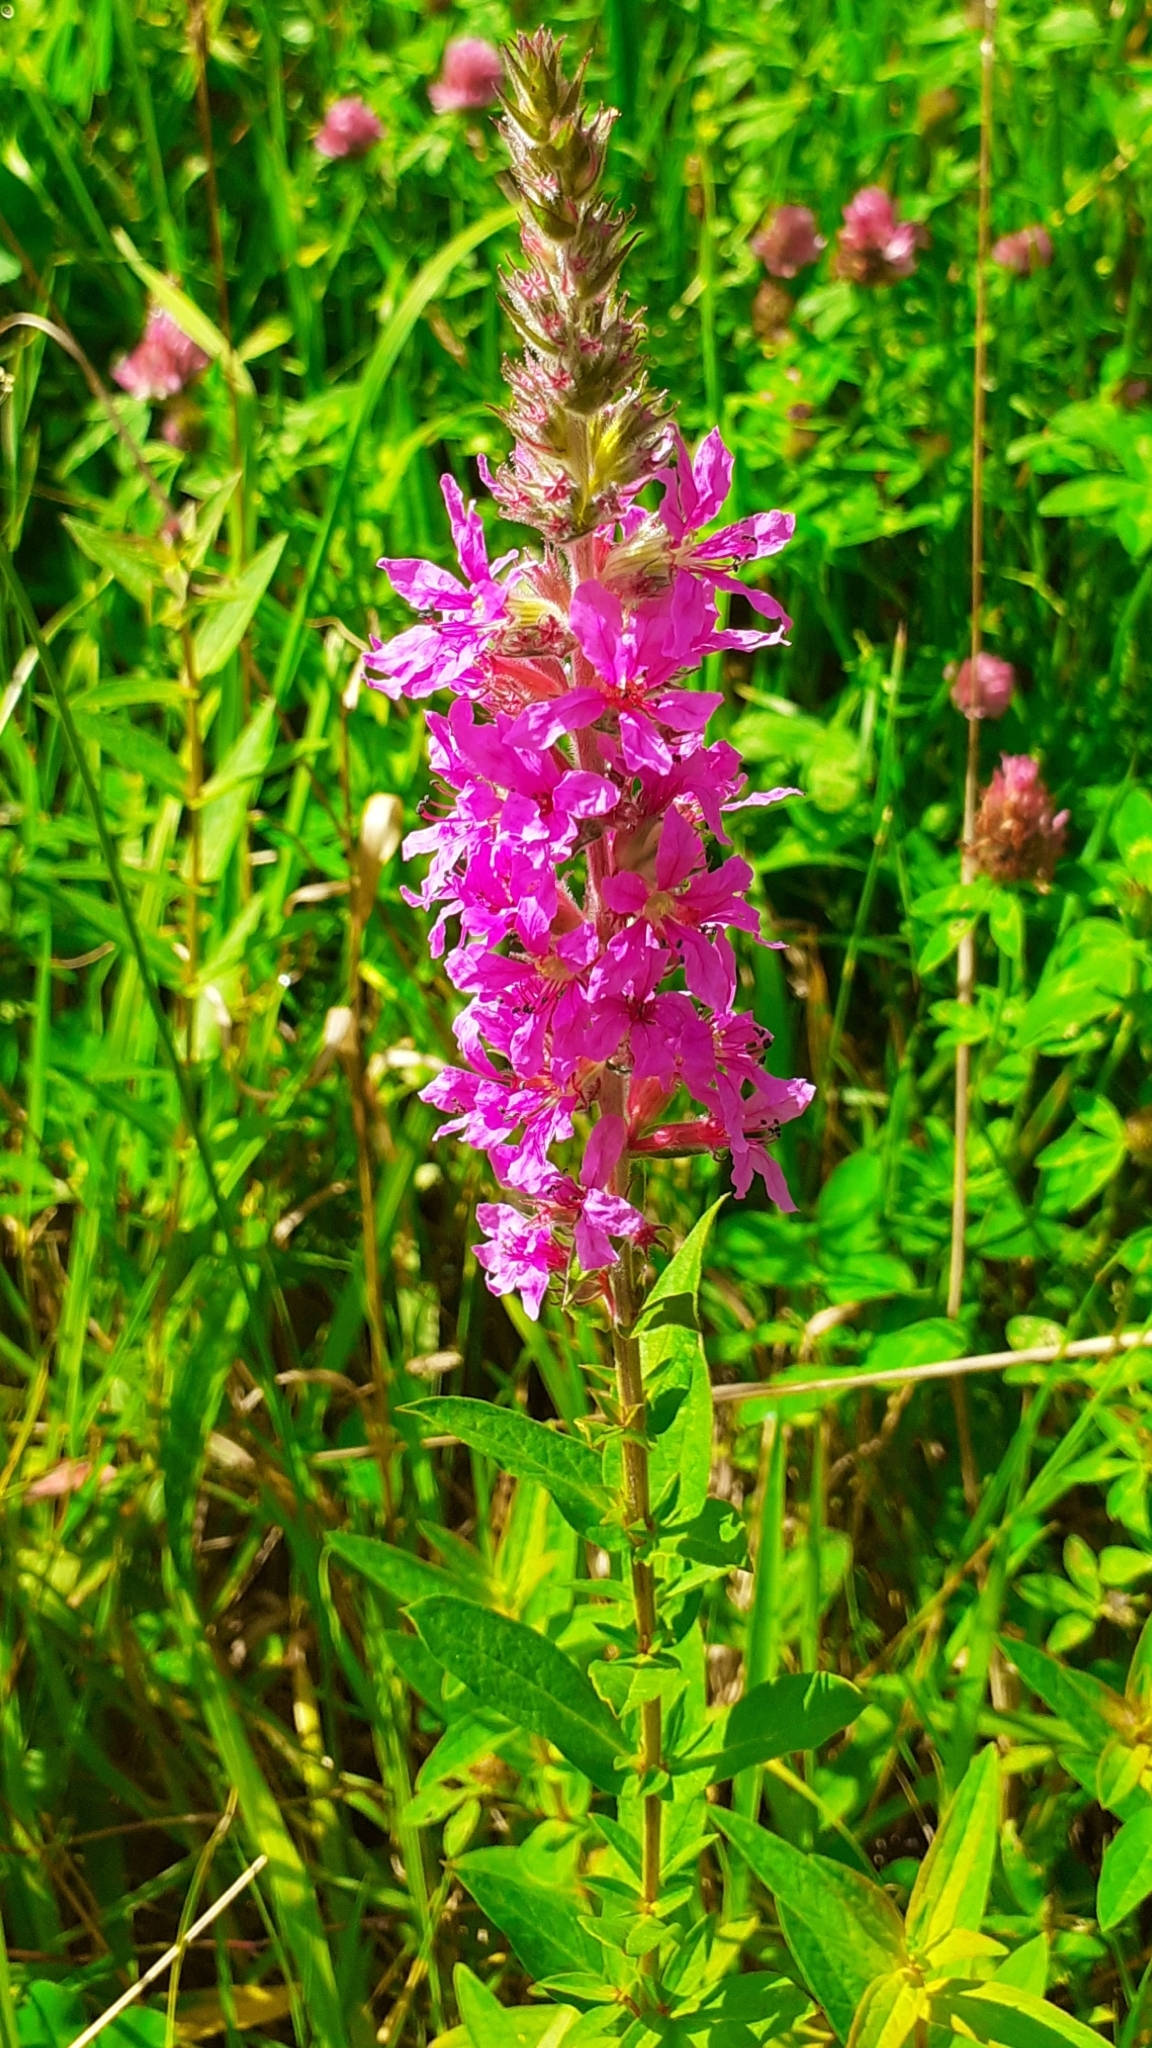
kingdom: Plantae
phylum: Tracheophyta
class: Magnoliopsida
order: Myrtales
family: Lythraceae
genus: Lythrum
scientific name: Lythrum salicaria
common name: Purple loosestrife
